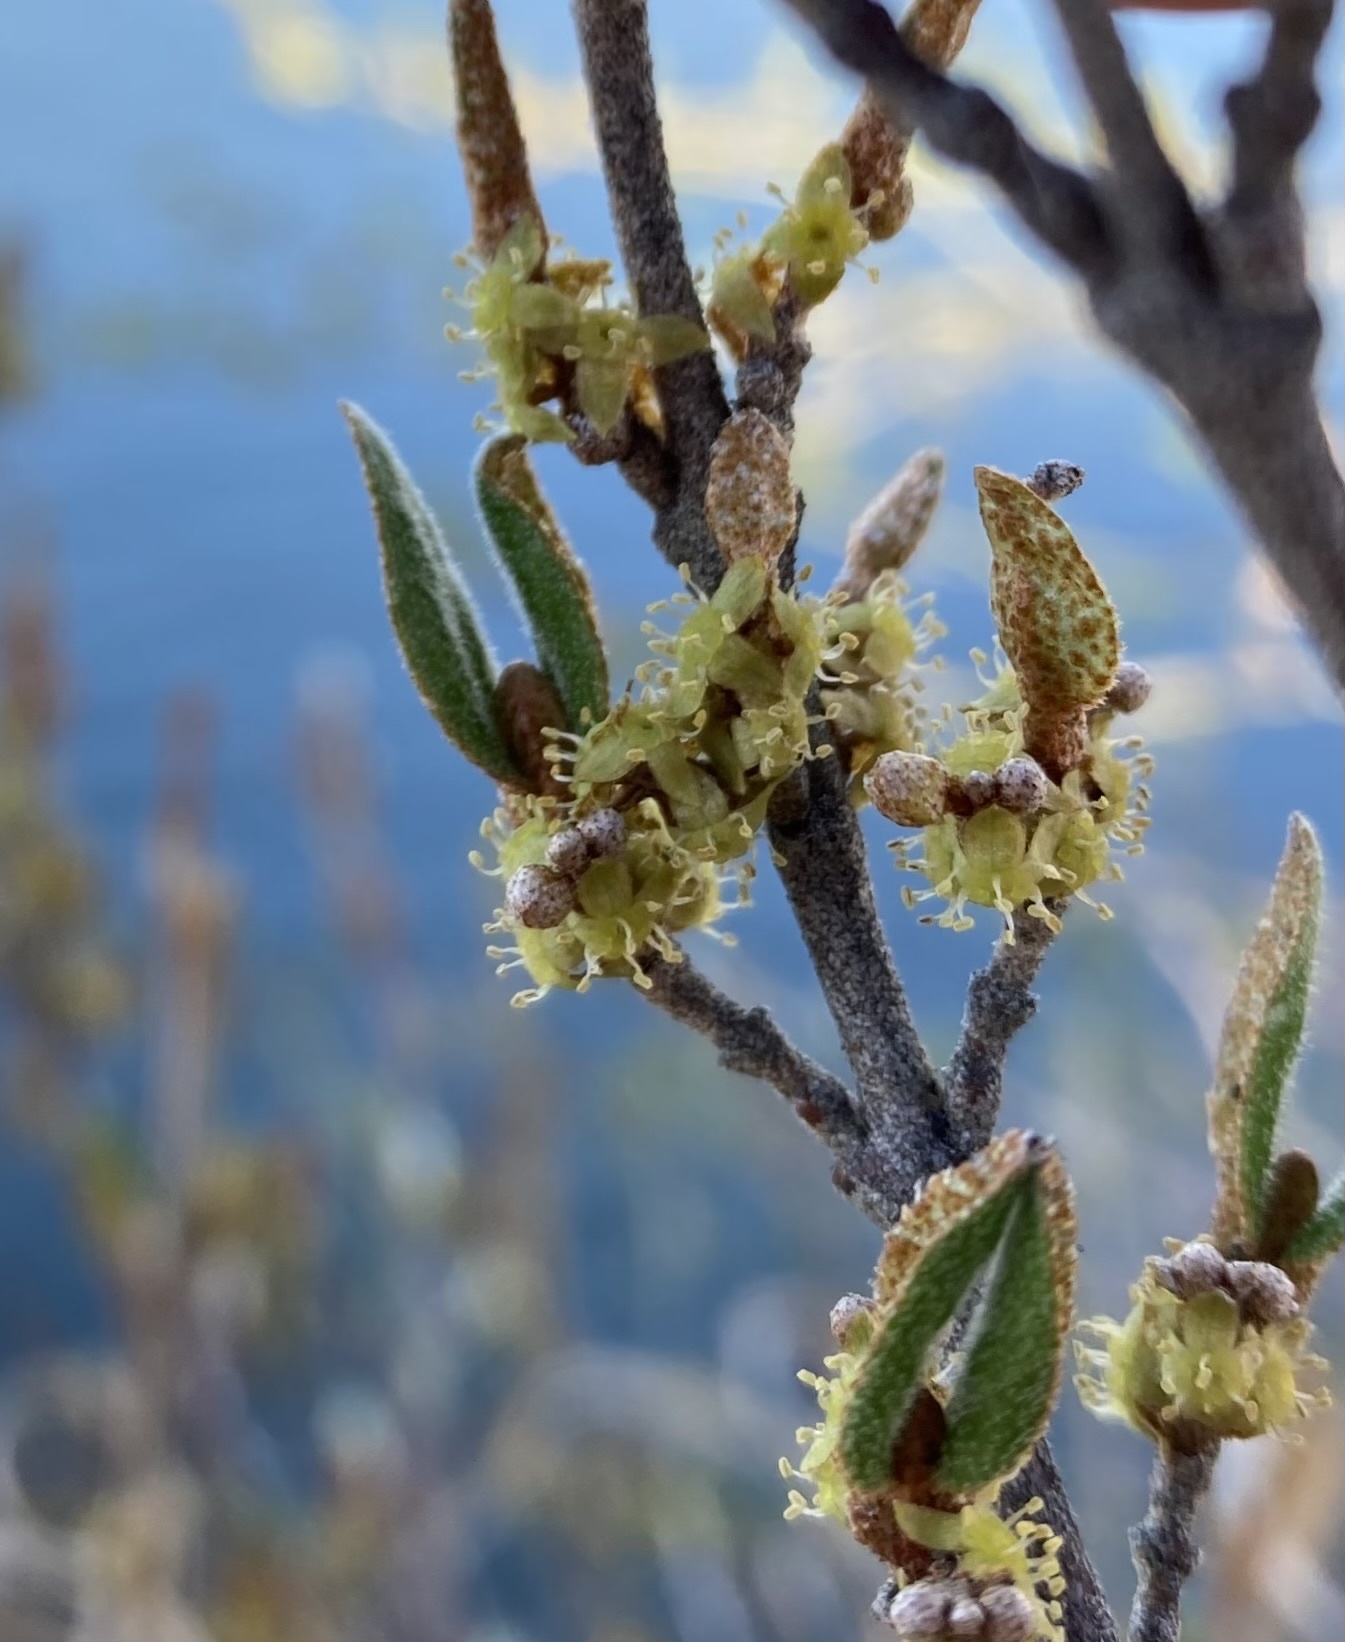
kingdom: Plantae
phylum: Tracheophyta
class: Magnoliopsida
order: Rosales
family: Elaeagnaceae
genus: Shepherdia
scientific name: Shepherdia canadensis
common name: Soapberry
